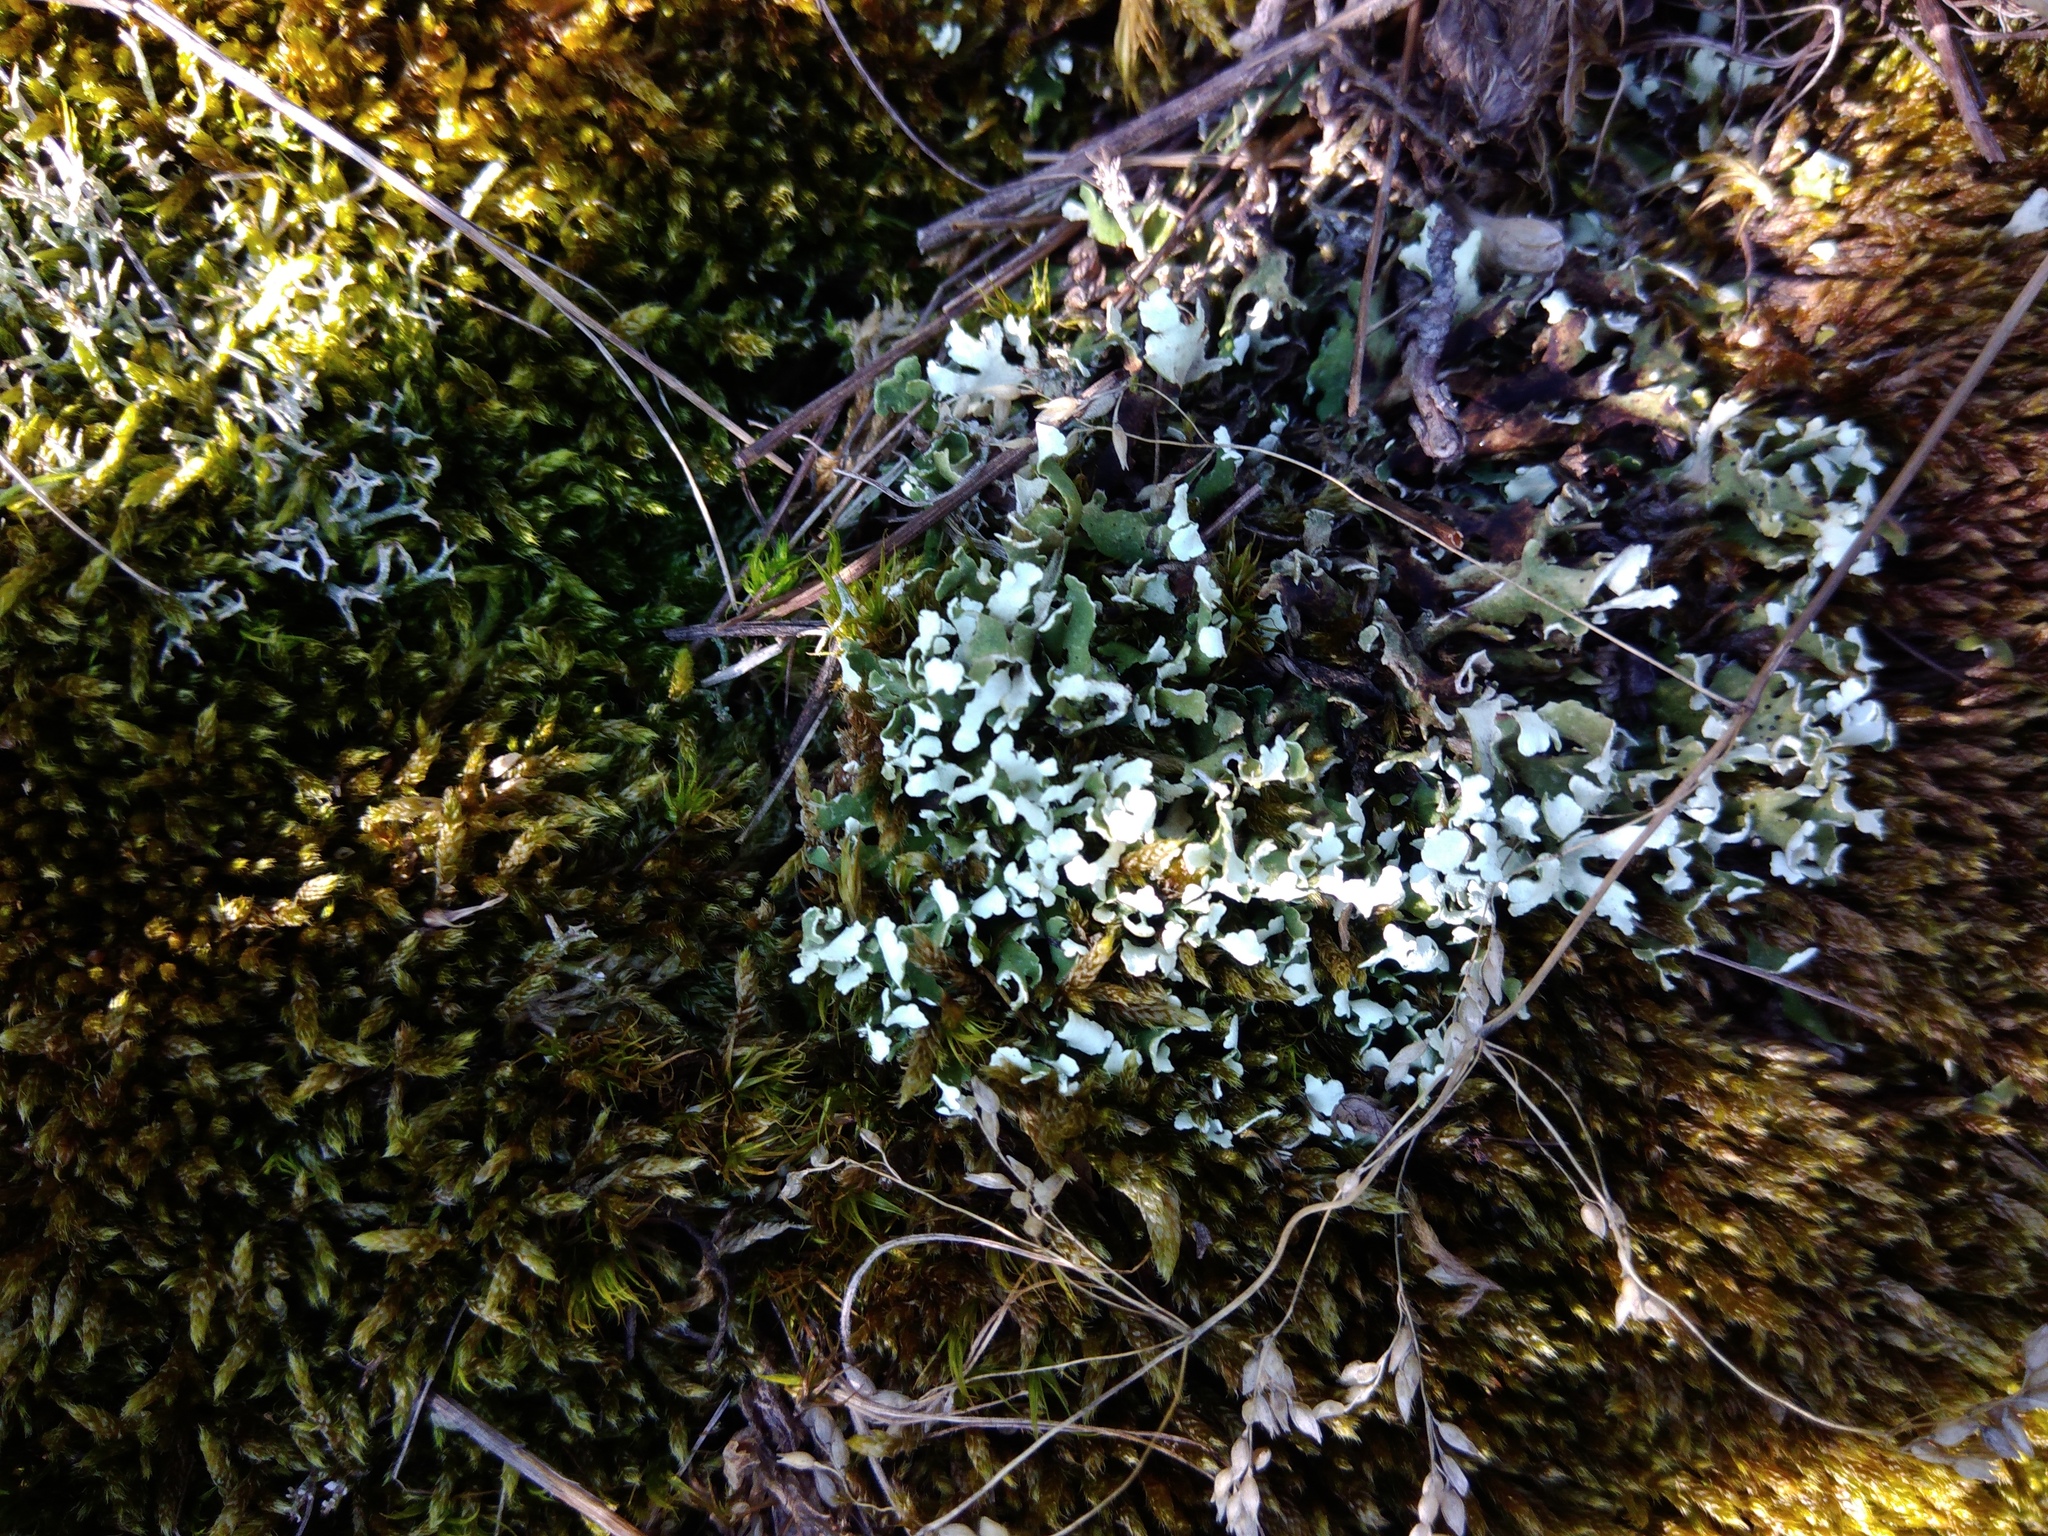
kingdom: Fungi
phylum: Ascomycota
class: Lecanoromycetes
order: Lecanorales
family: Cladoniaceae
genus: Cladonia
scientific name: Cladonia foliacea
